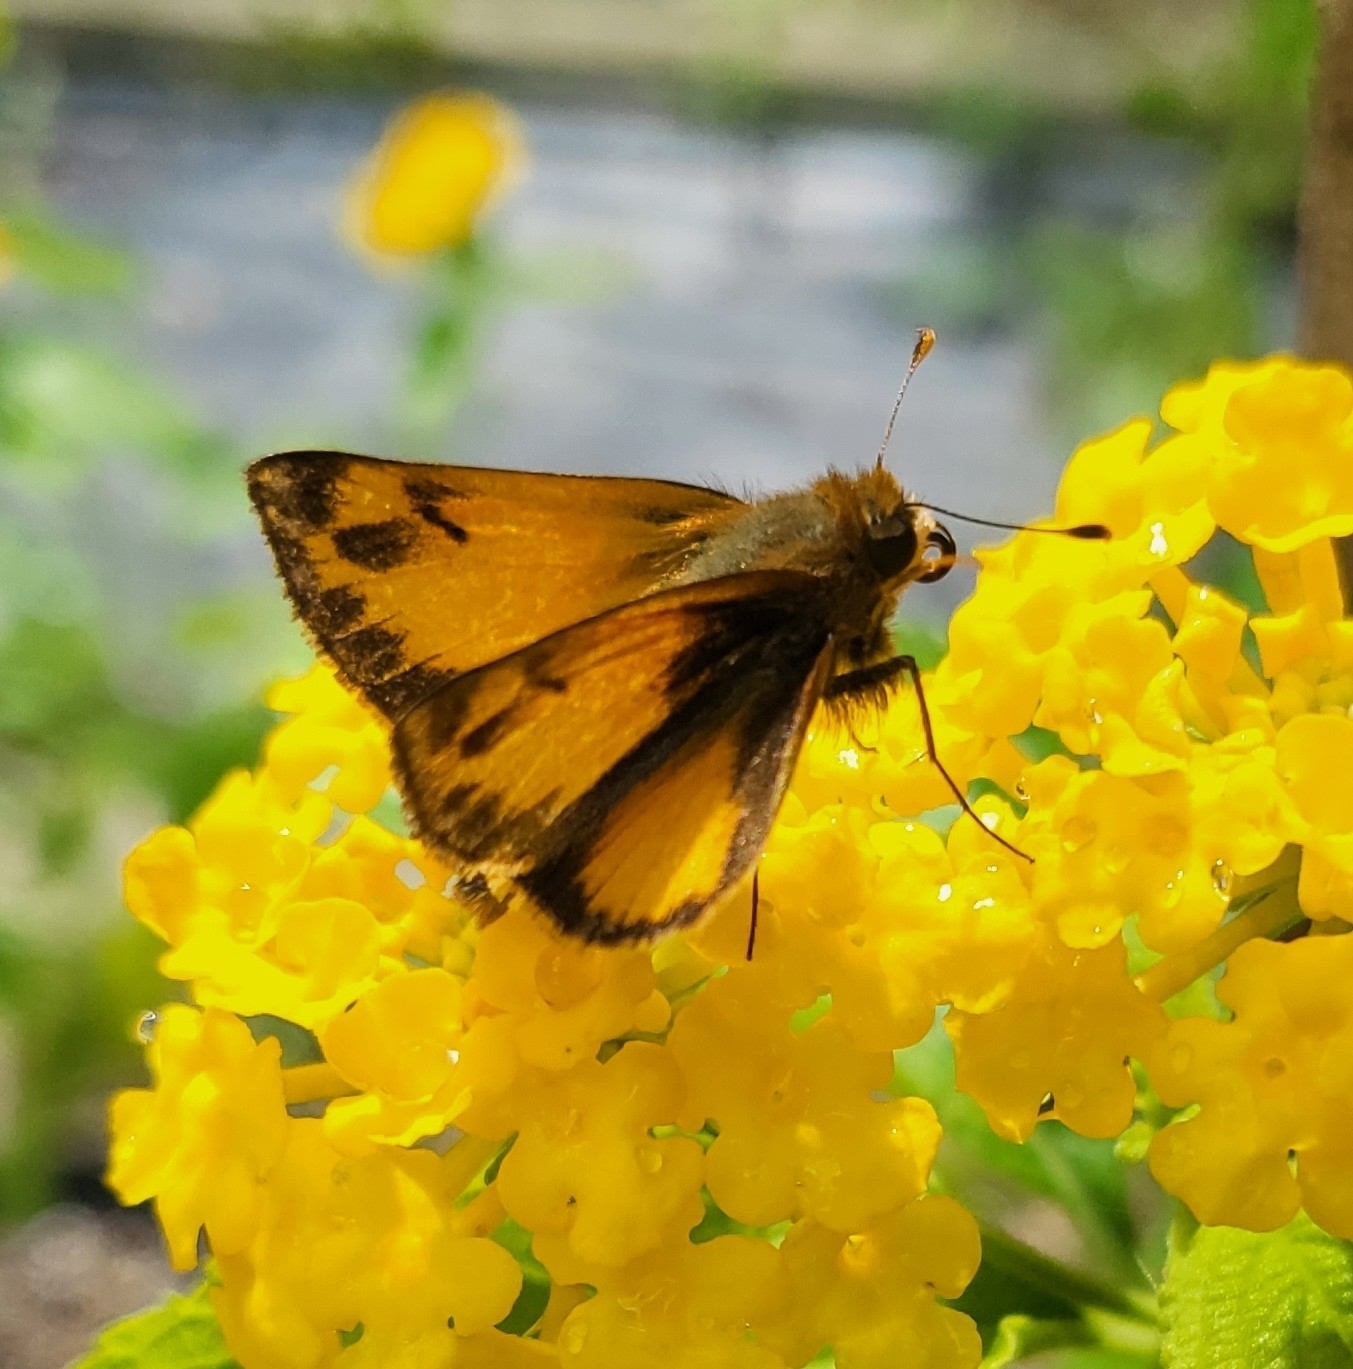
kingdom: Animalia
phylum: Arthropoda
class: Insecta
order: Lepidoptera
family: Hesperiidae
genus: Lon
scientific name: Lon zabulon
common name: Zabulon skipper
